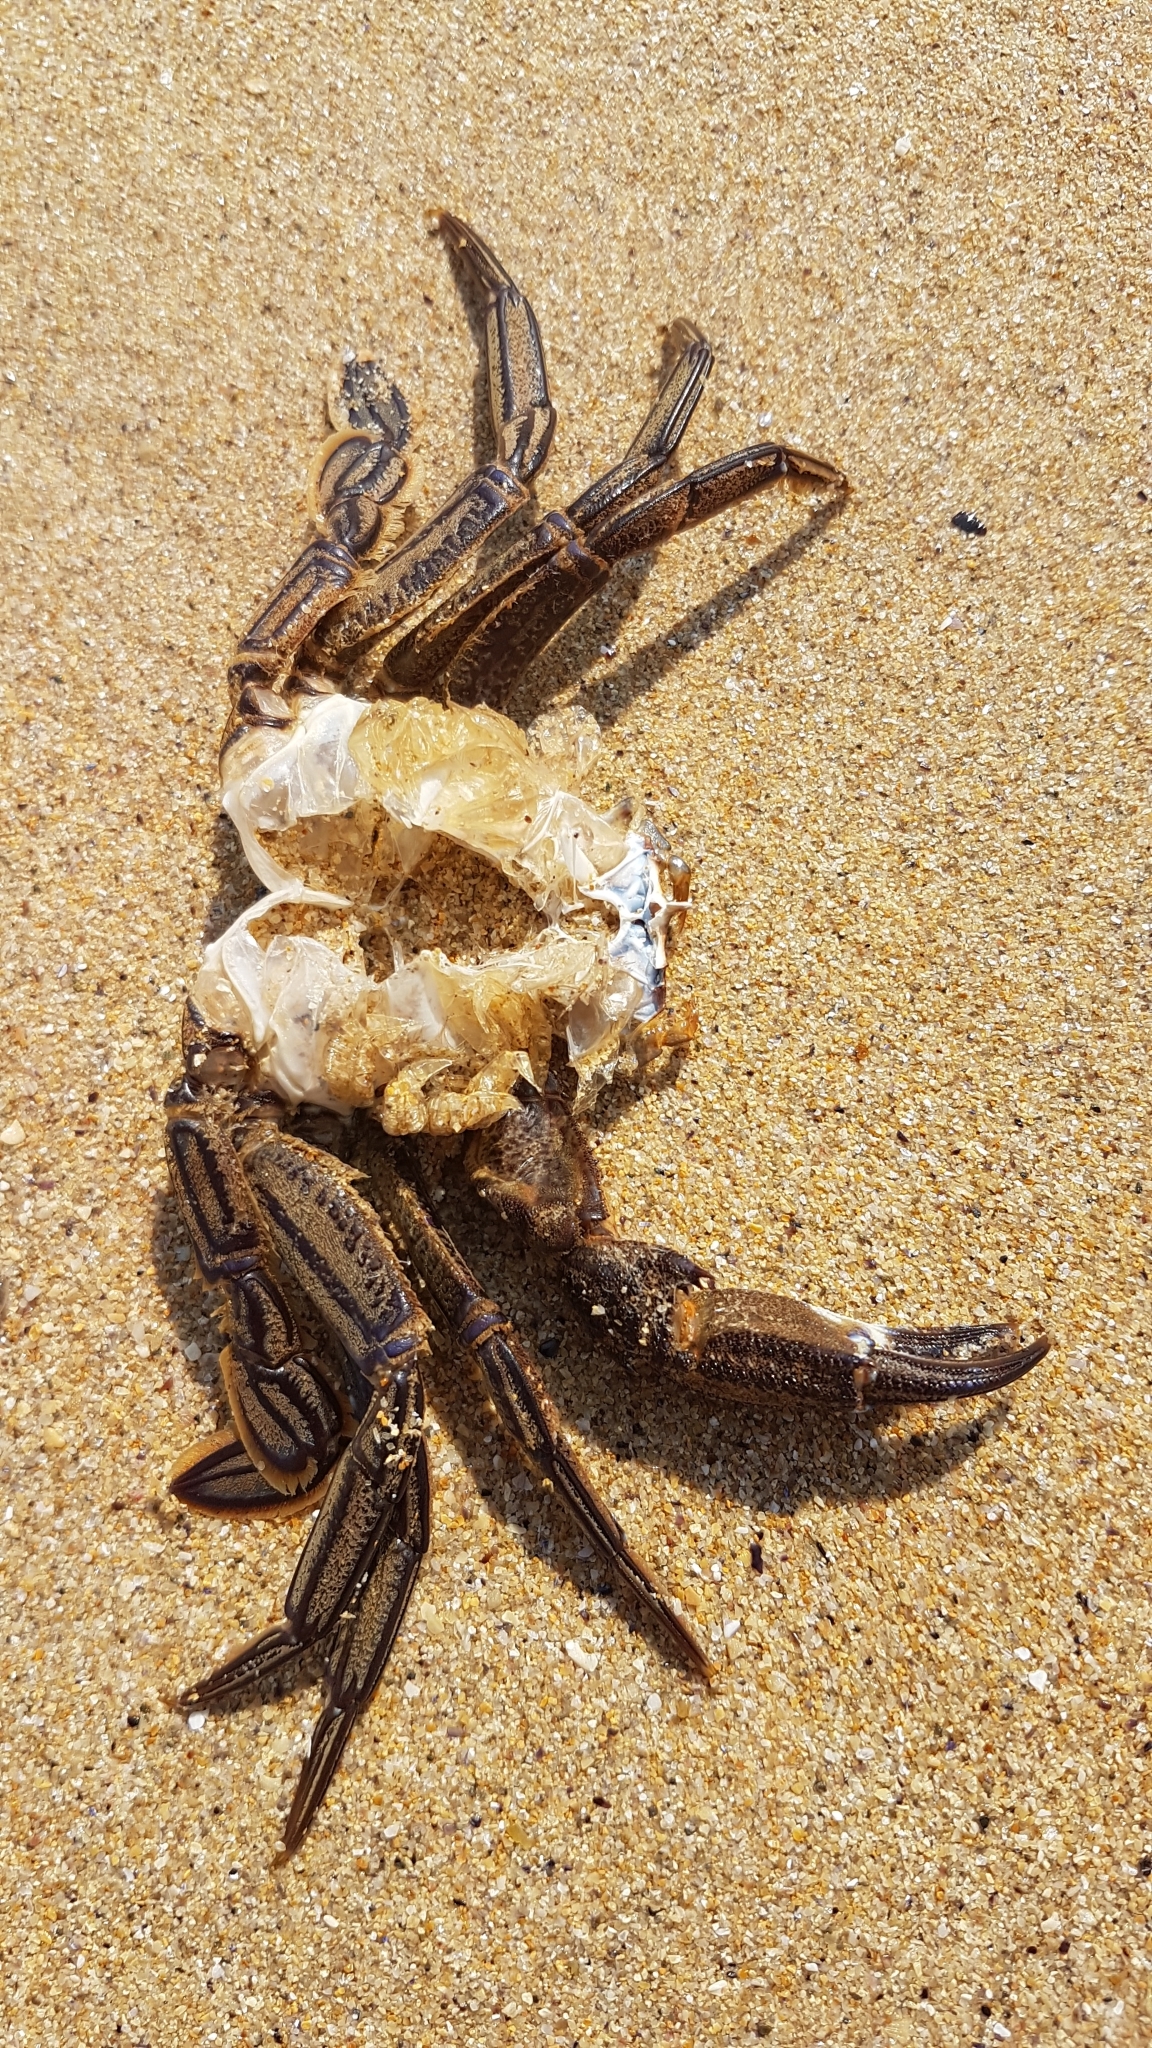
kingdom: Animalia
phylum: Arthropoda
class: Malacostraca
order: Decapoda
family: Polybiidae
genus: Necora
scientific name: Necora puber
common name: Velvet swimming crab
